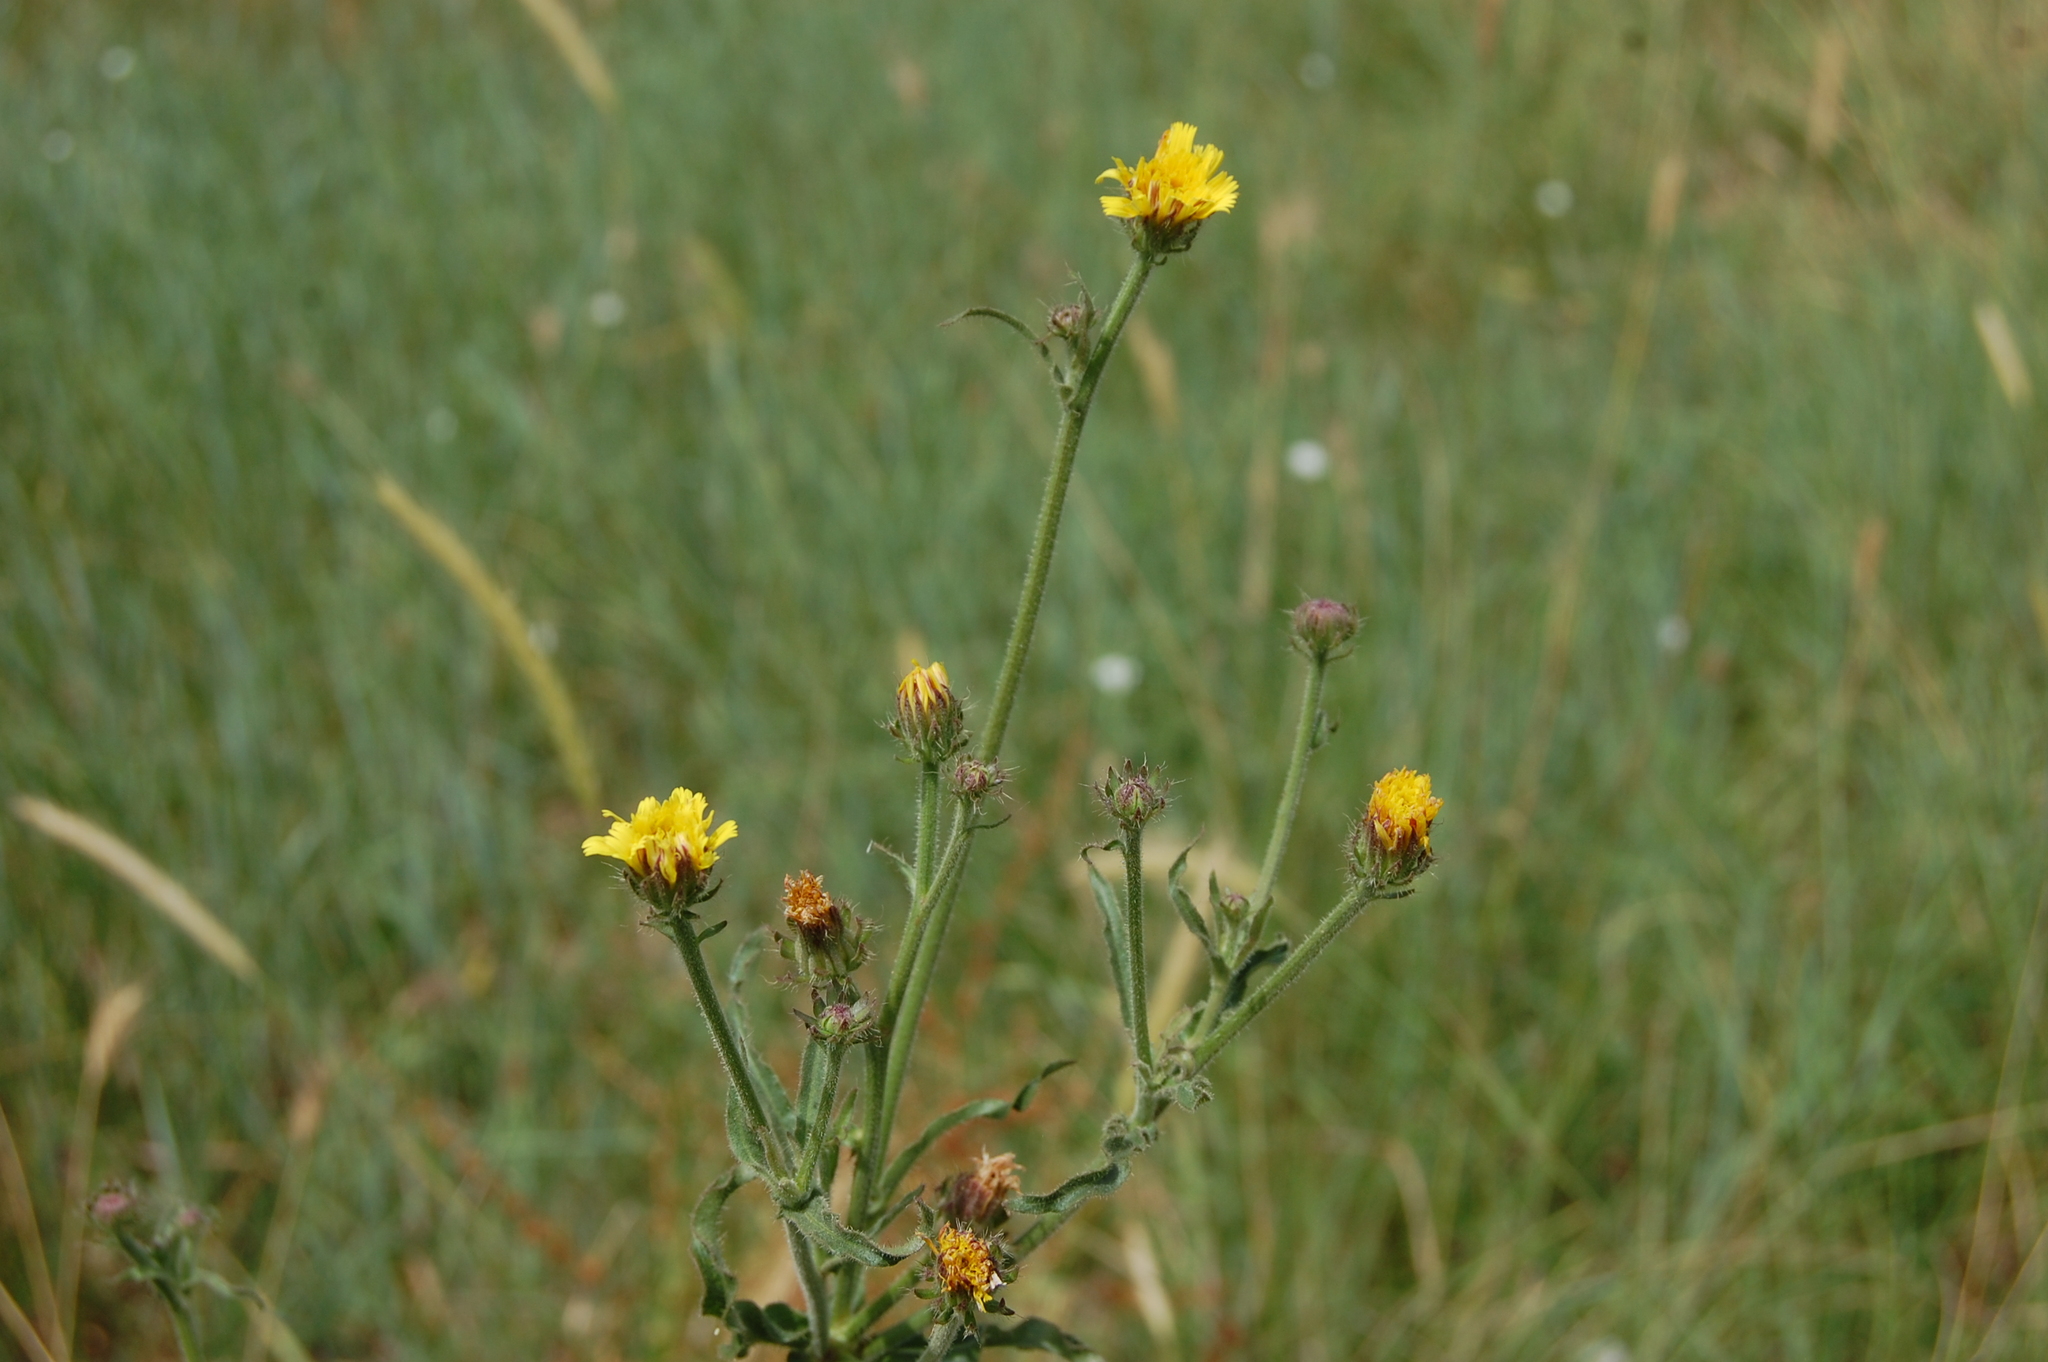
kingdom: Plantae
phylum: Tracheophyta
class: Magnoliopsida
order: Asterales
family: Asteraceae
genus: Picris
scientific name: Picris hieracioides
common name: Hawkweed oxtongue
